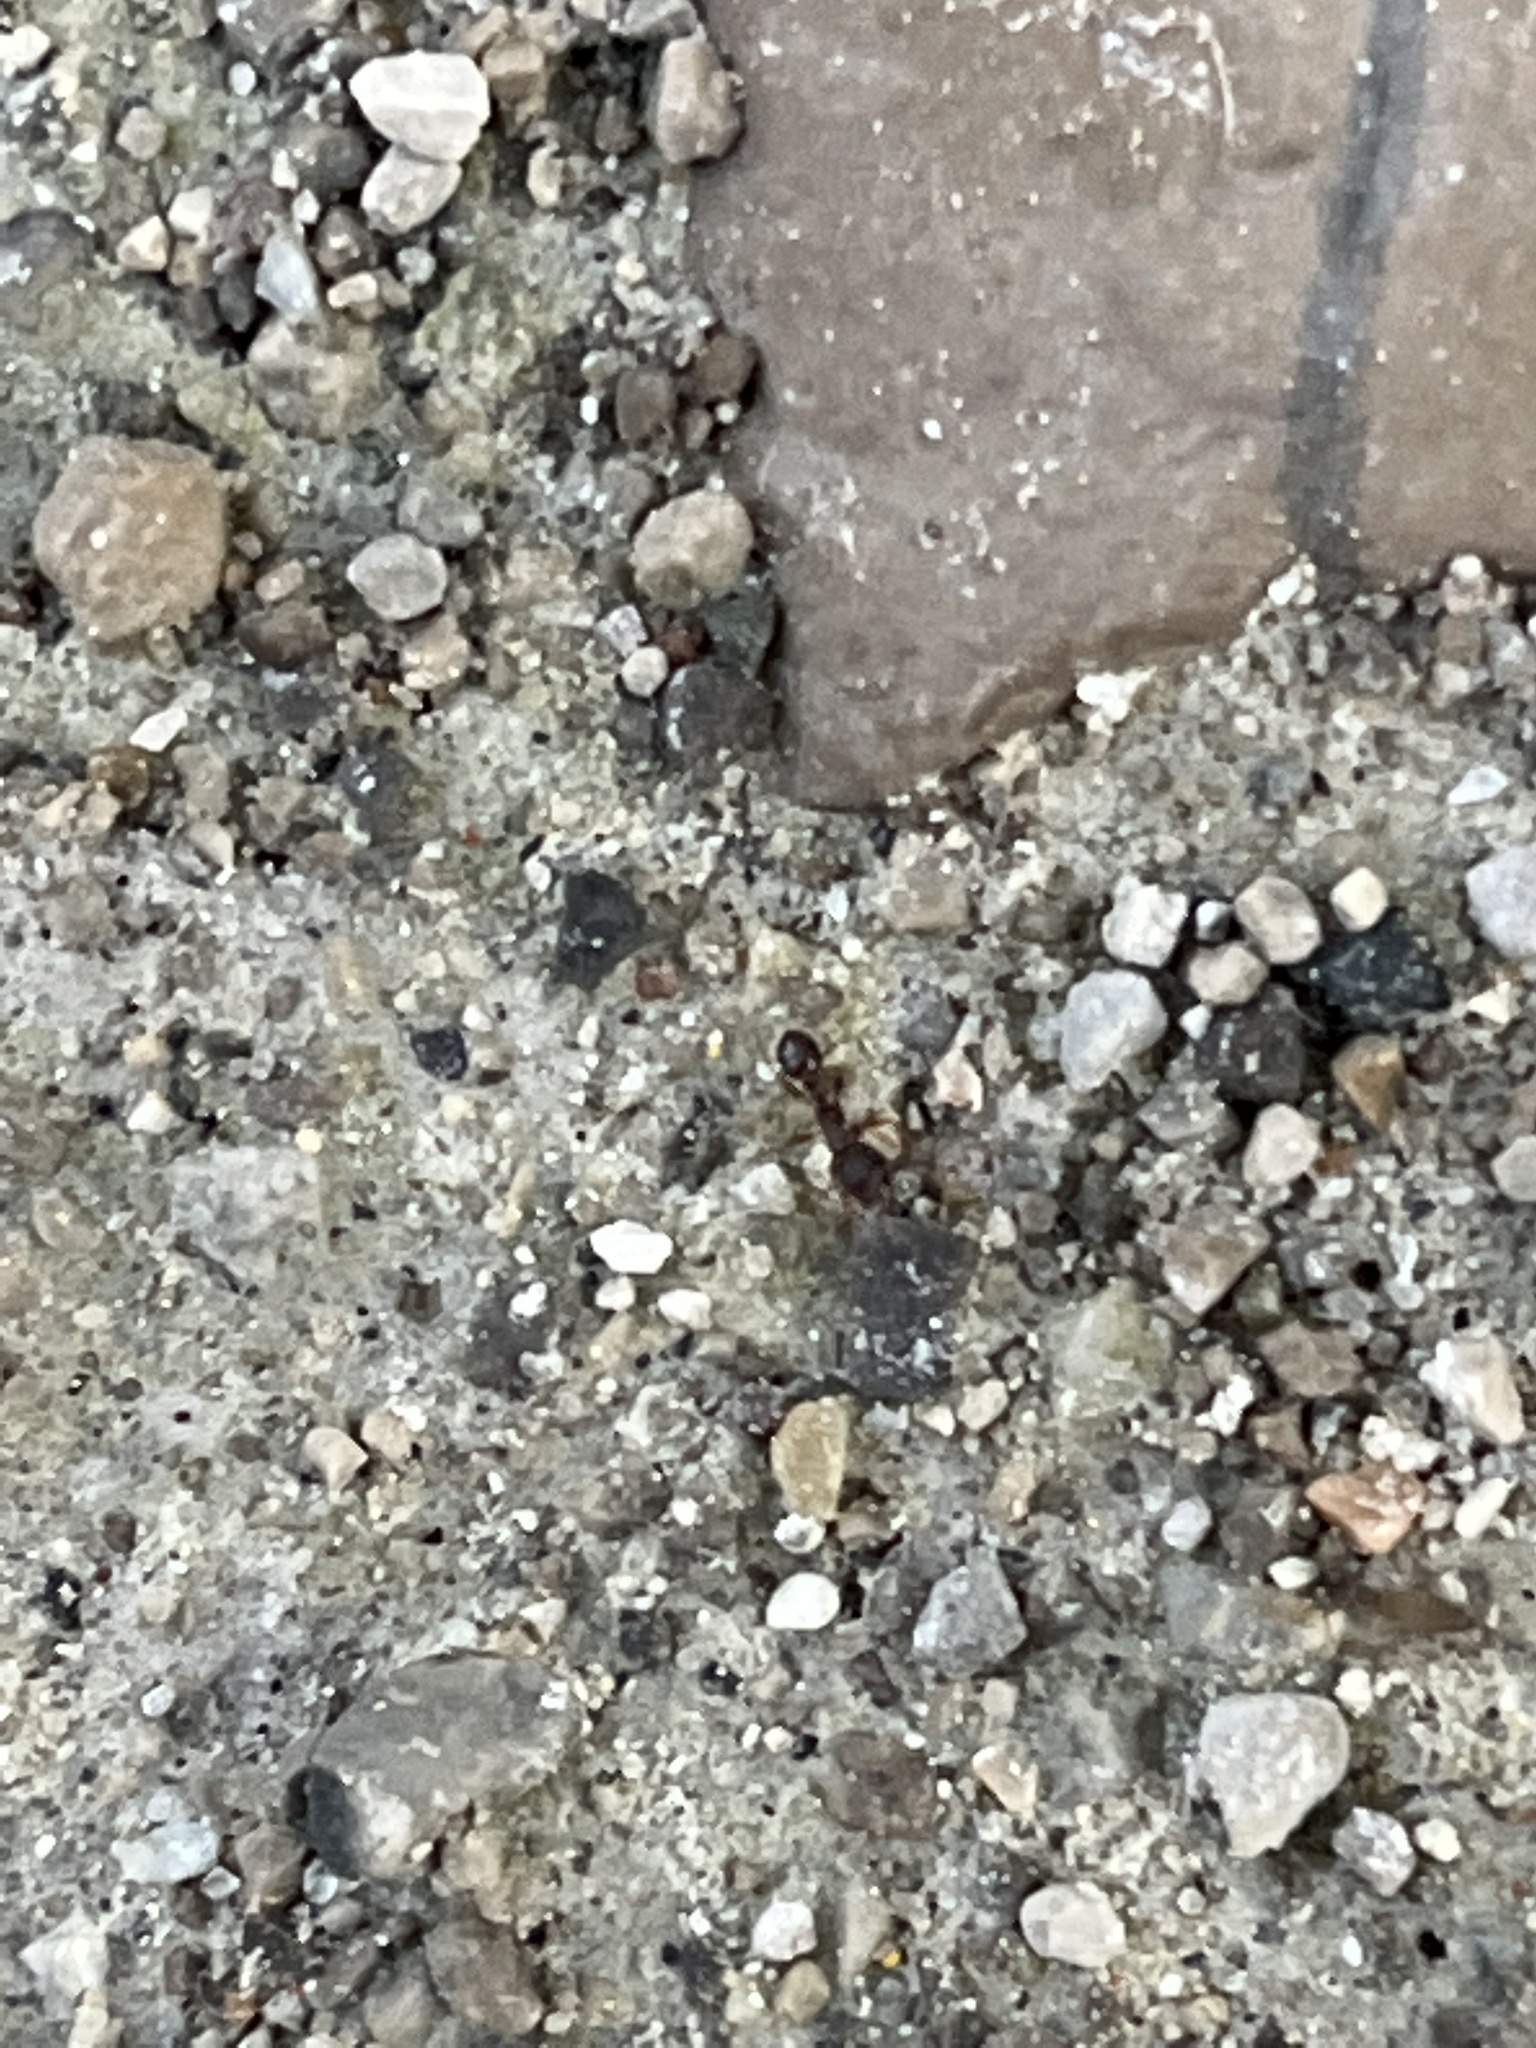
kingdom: Animalia
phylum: Arthropoda
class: Insecta
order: Hymenoptera
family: Formicidae
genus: Tetramorium
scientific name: Tetramorium immigrans
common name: Pavement ant
